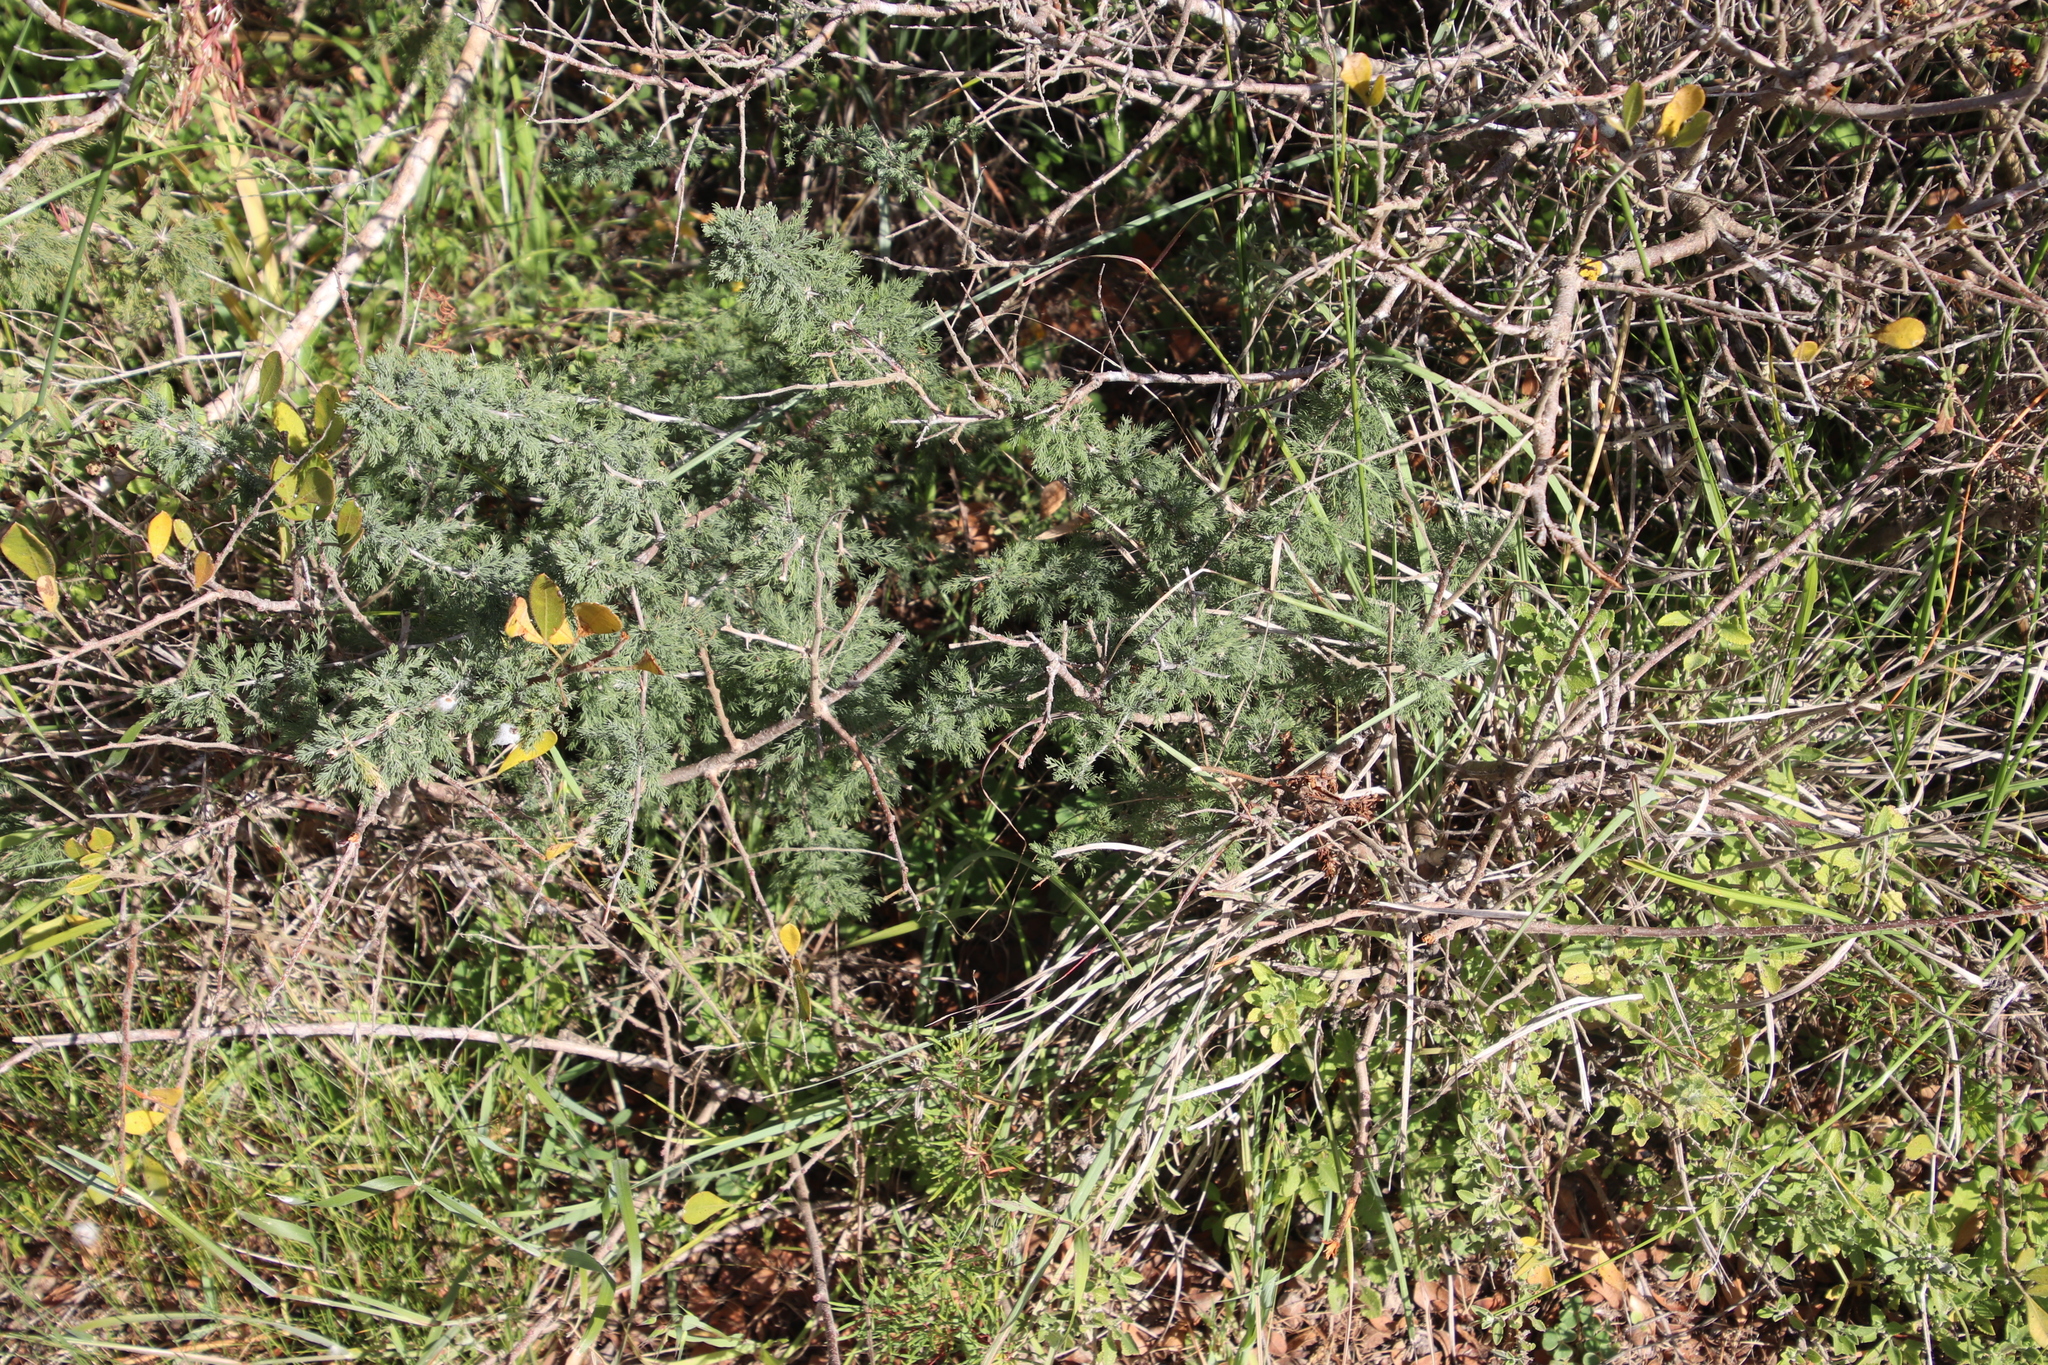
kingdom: Plantae
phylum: Tracheophyta
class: Liliopsida
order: Asparagales
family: Asparagaceae
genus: Asparagus
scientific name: Asparagus capensis
